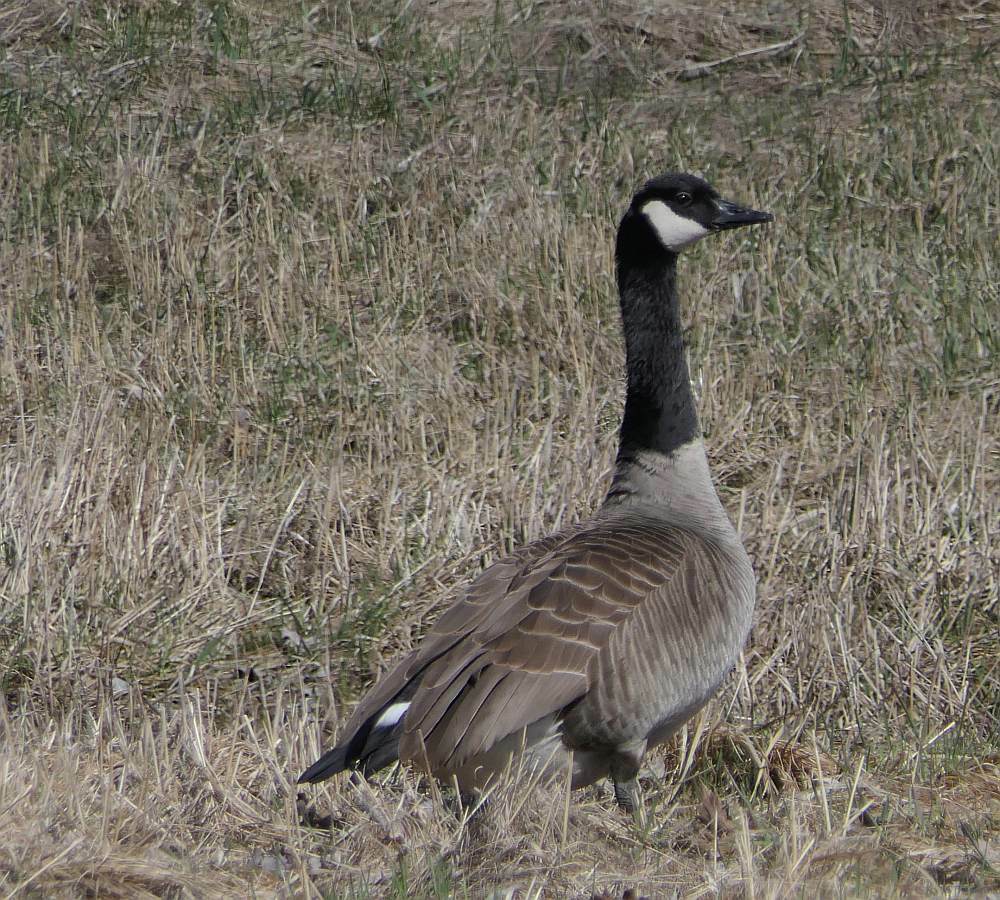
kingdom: Animalia
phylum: Chordata
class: Aves
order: Anseriformes
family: Anatidae
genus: Branta
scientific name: Branta canadensis
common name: Canada goose
